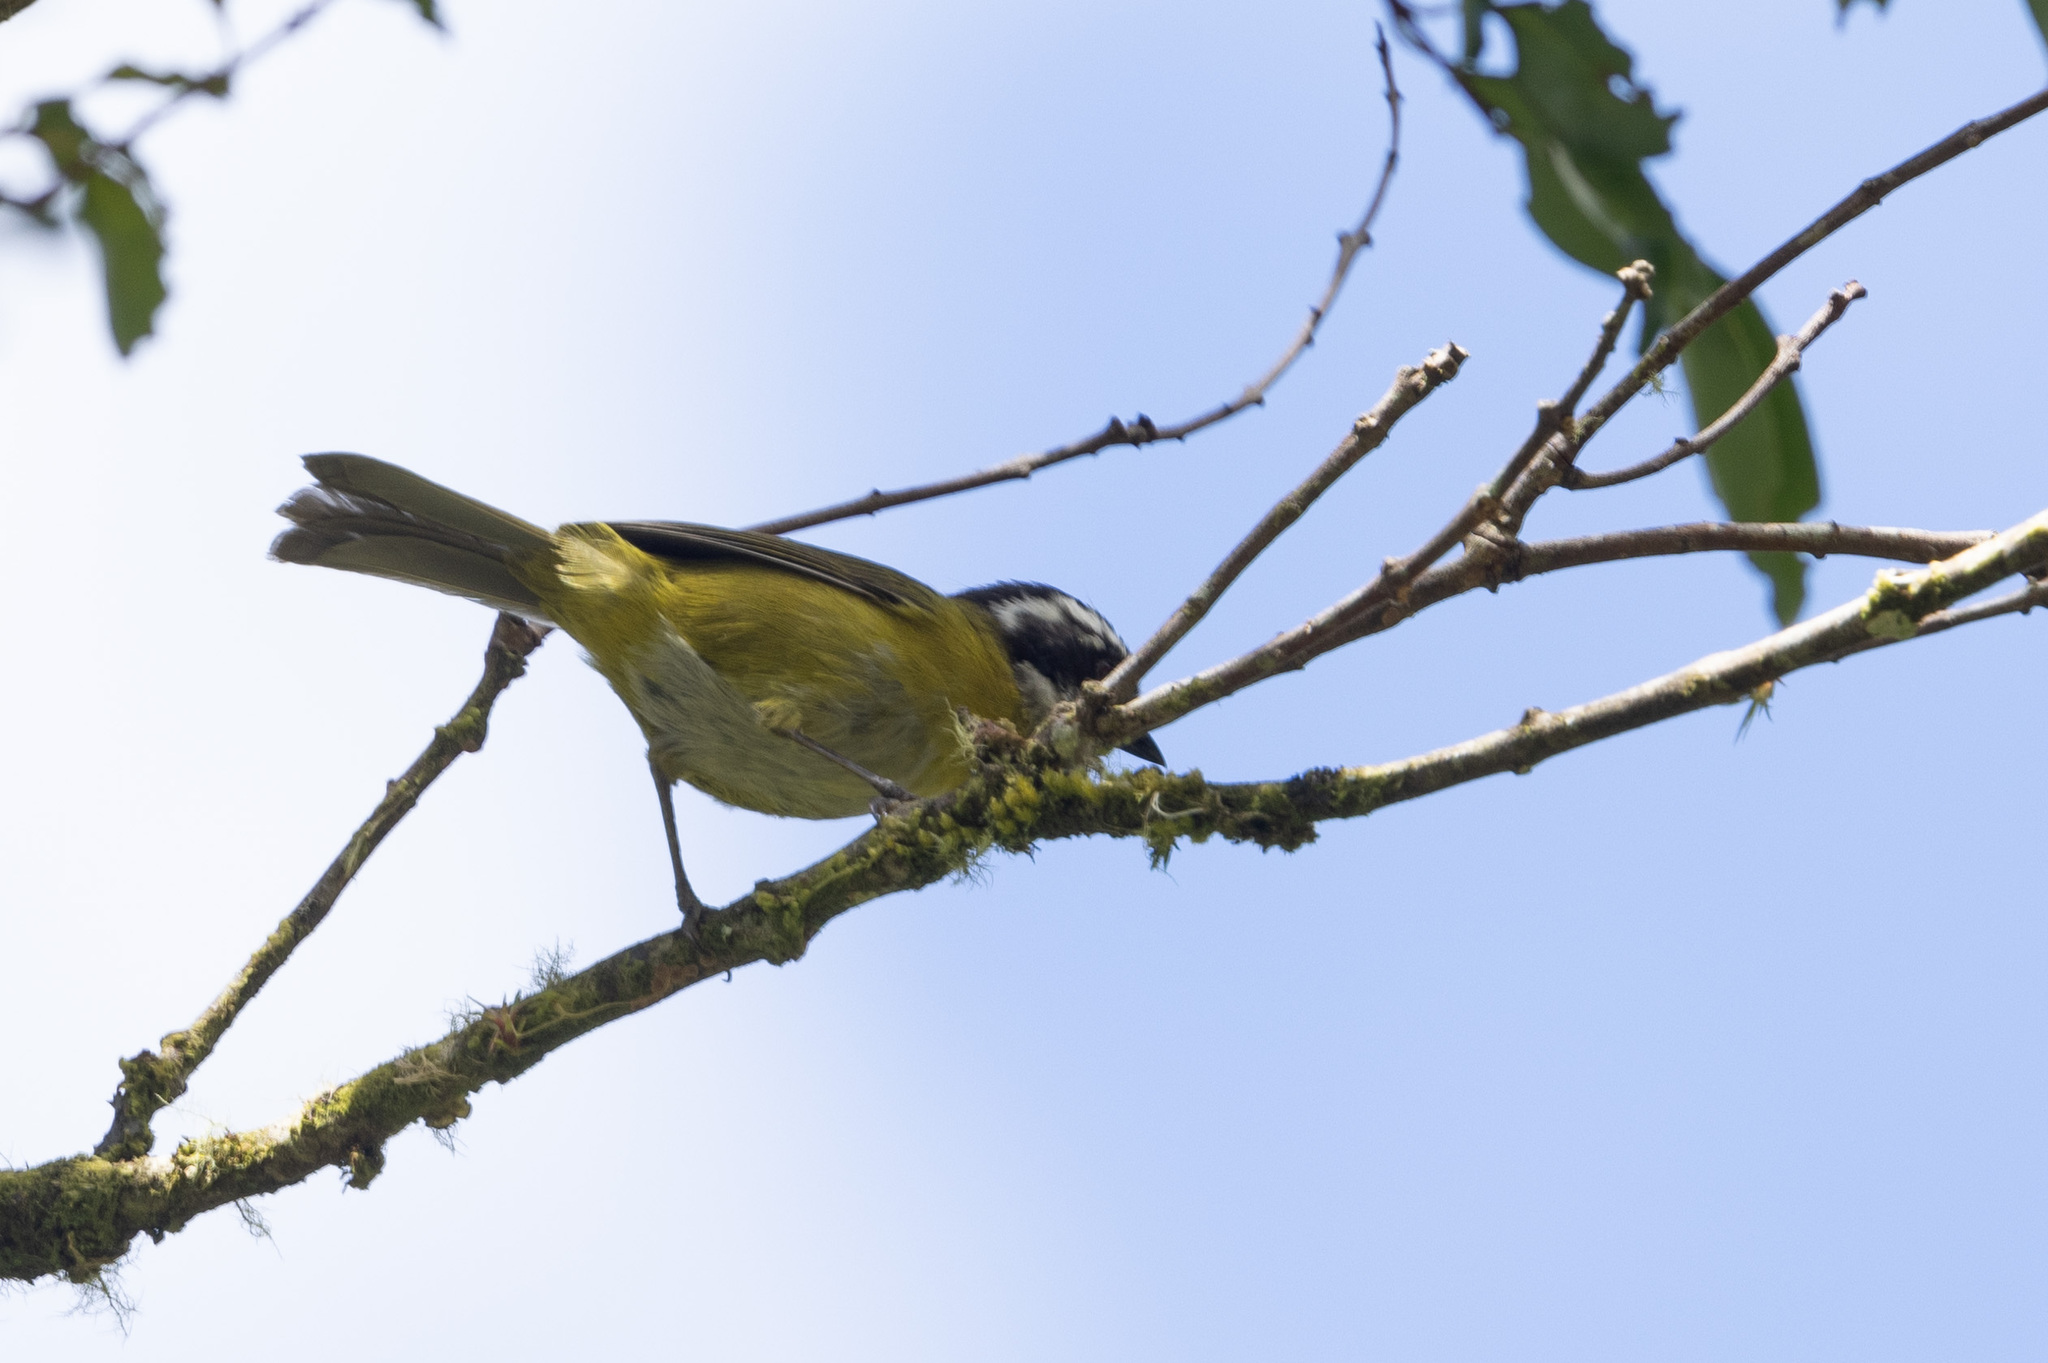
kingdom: Animalia
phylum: Chordata
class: Aves
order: Passeriformes
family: Passerellidae
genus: Chlorospingus
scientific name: Chlorospingus pileatus
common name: Sooty-capped bush-tanager
